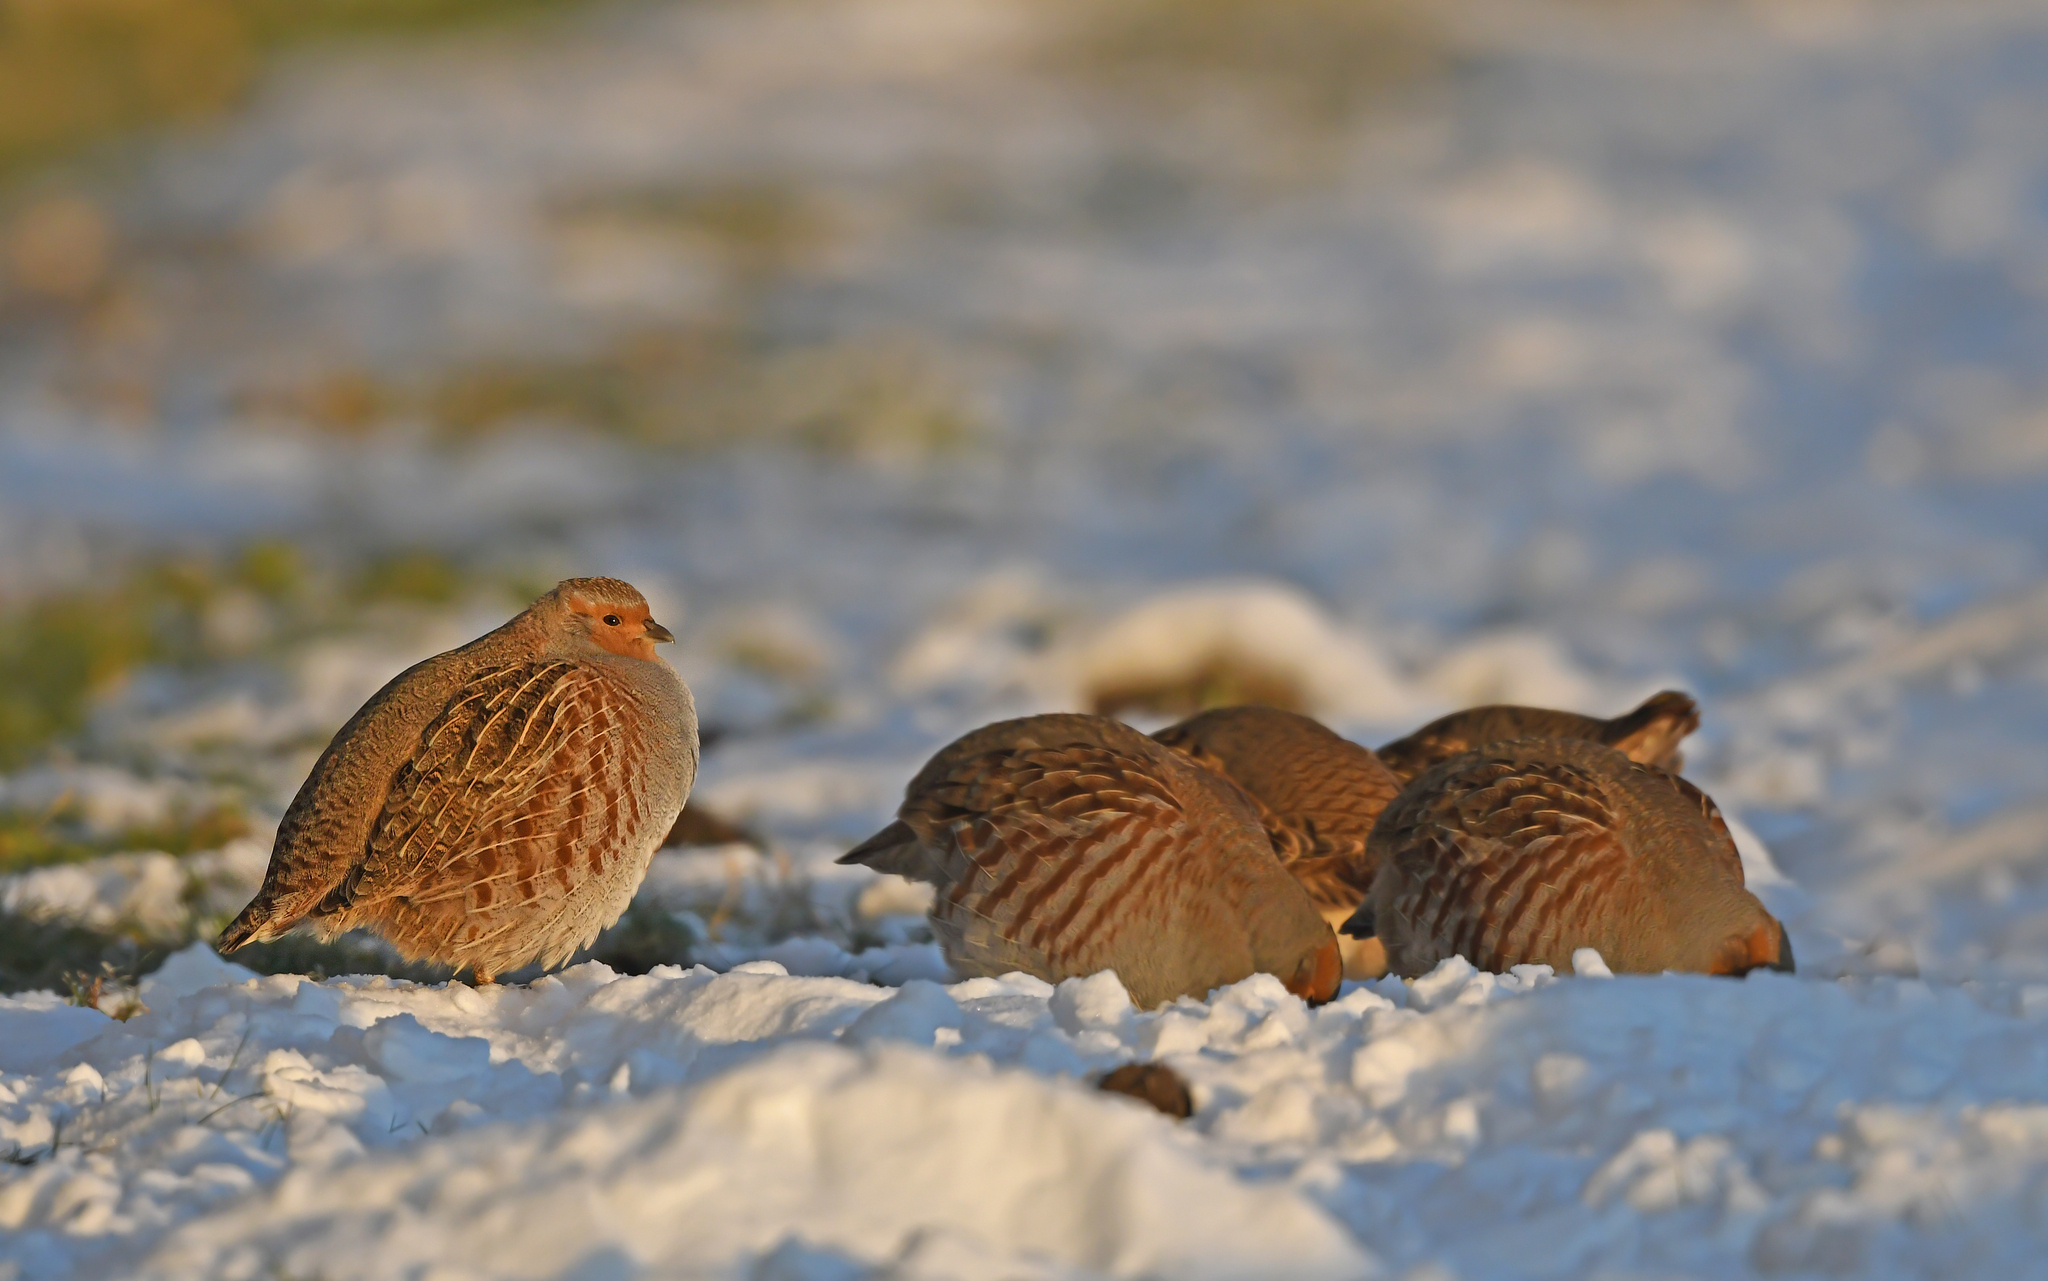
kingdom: Animalia
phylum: Chordata
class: Aves
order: Galliformes
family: Phasianidae
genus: Perdix
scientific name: Perdix perdix
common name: Grey partridge
